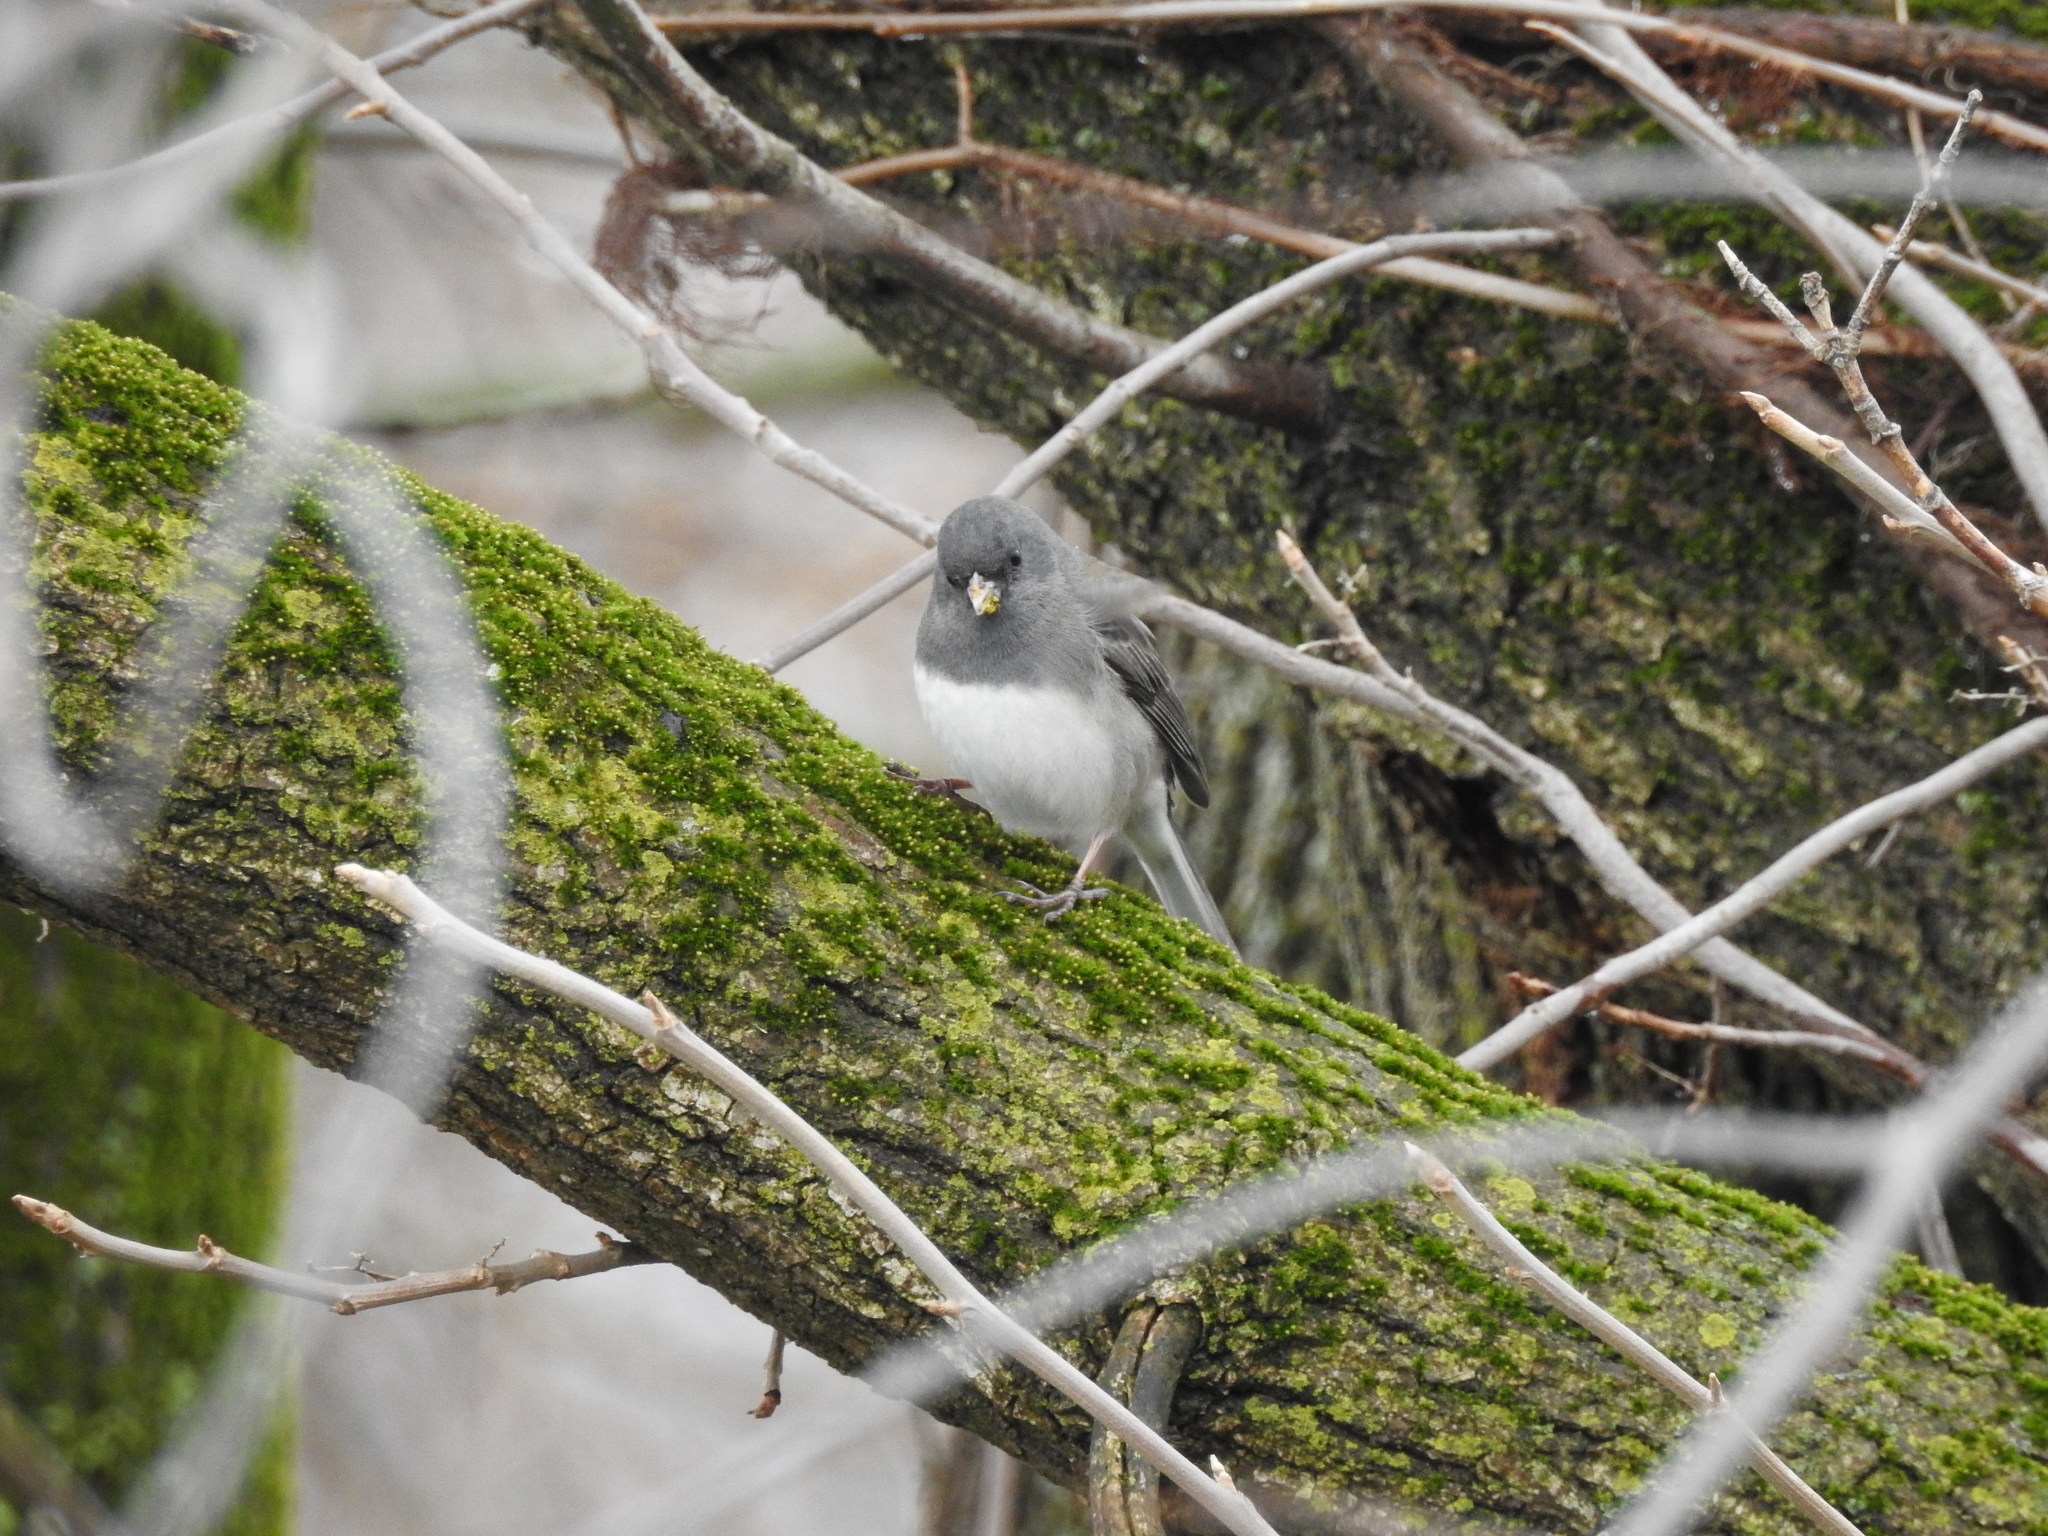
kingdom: Animalia
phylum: Chordata
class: Aves
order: Passeriformes
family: Passerellidae
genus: Junco
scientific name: Junco hyemalis
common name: Dark-eyed junco
